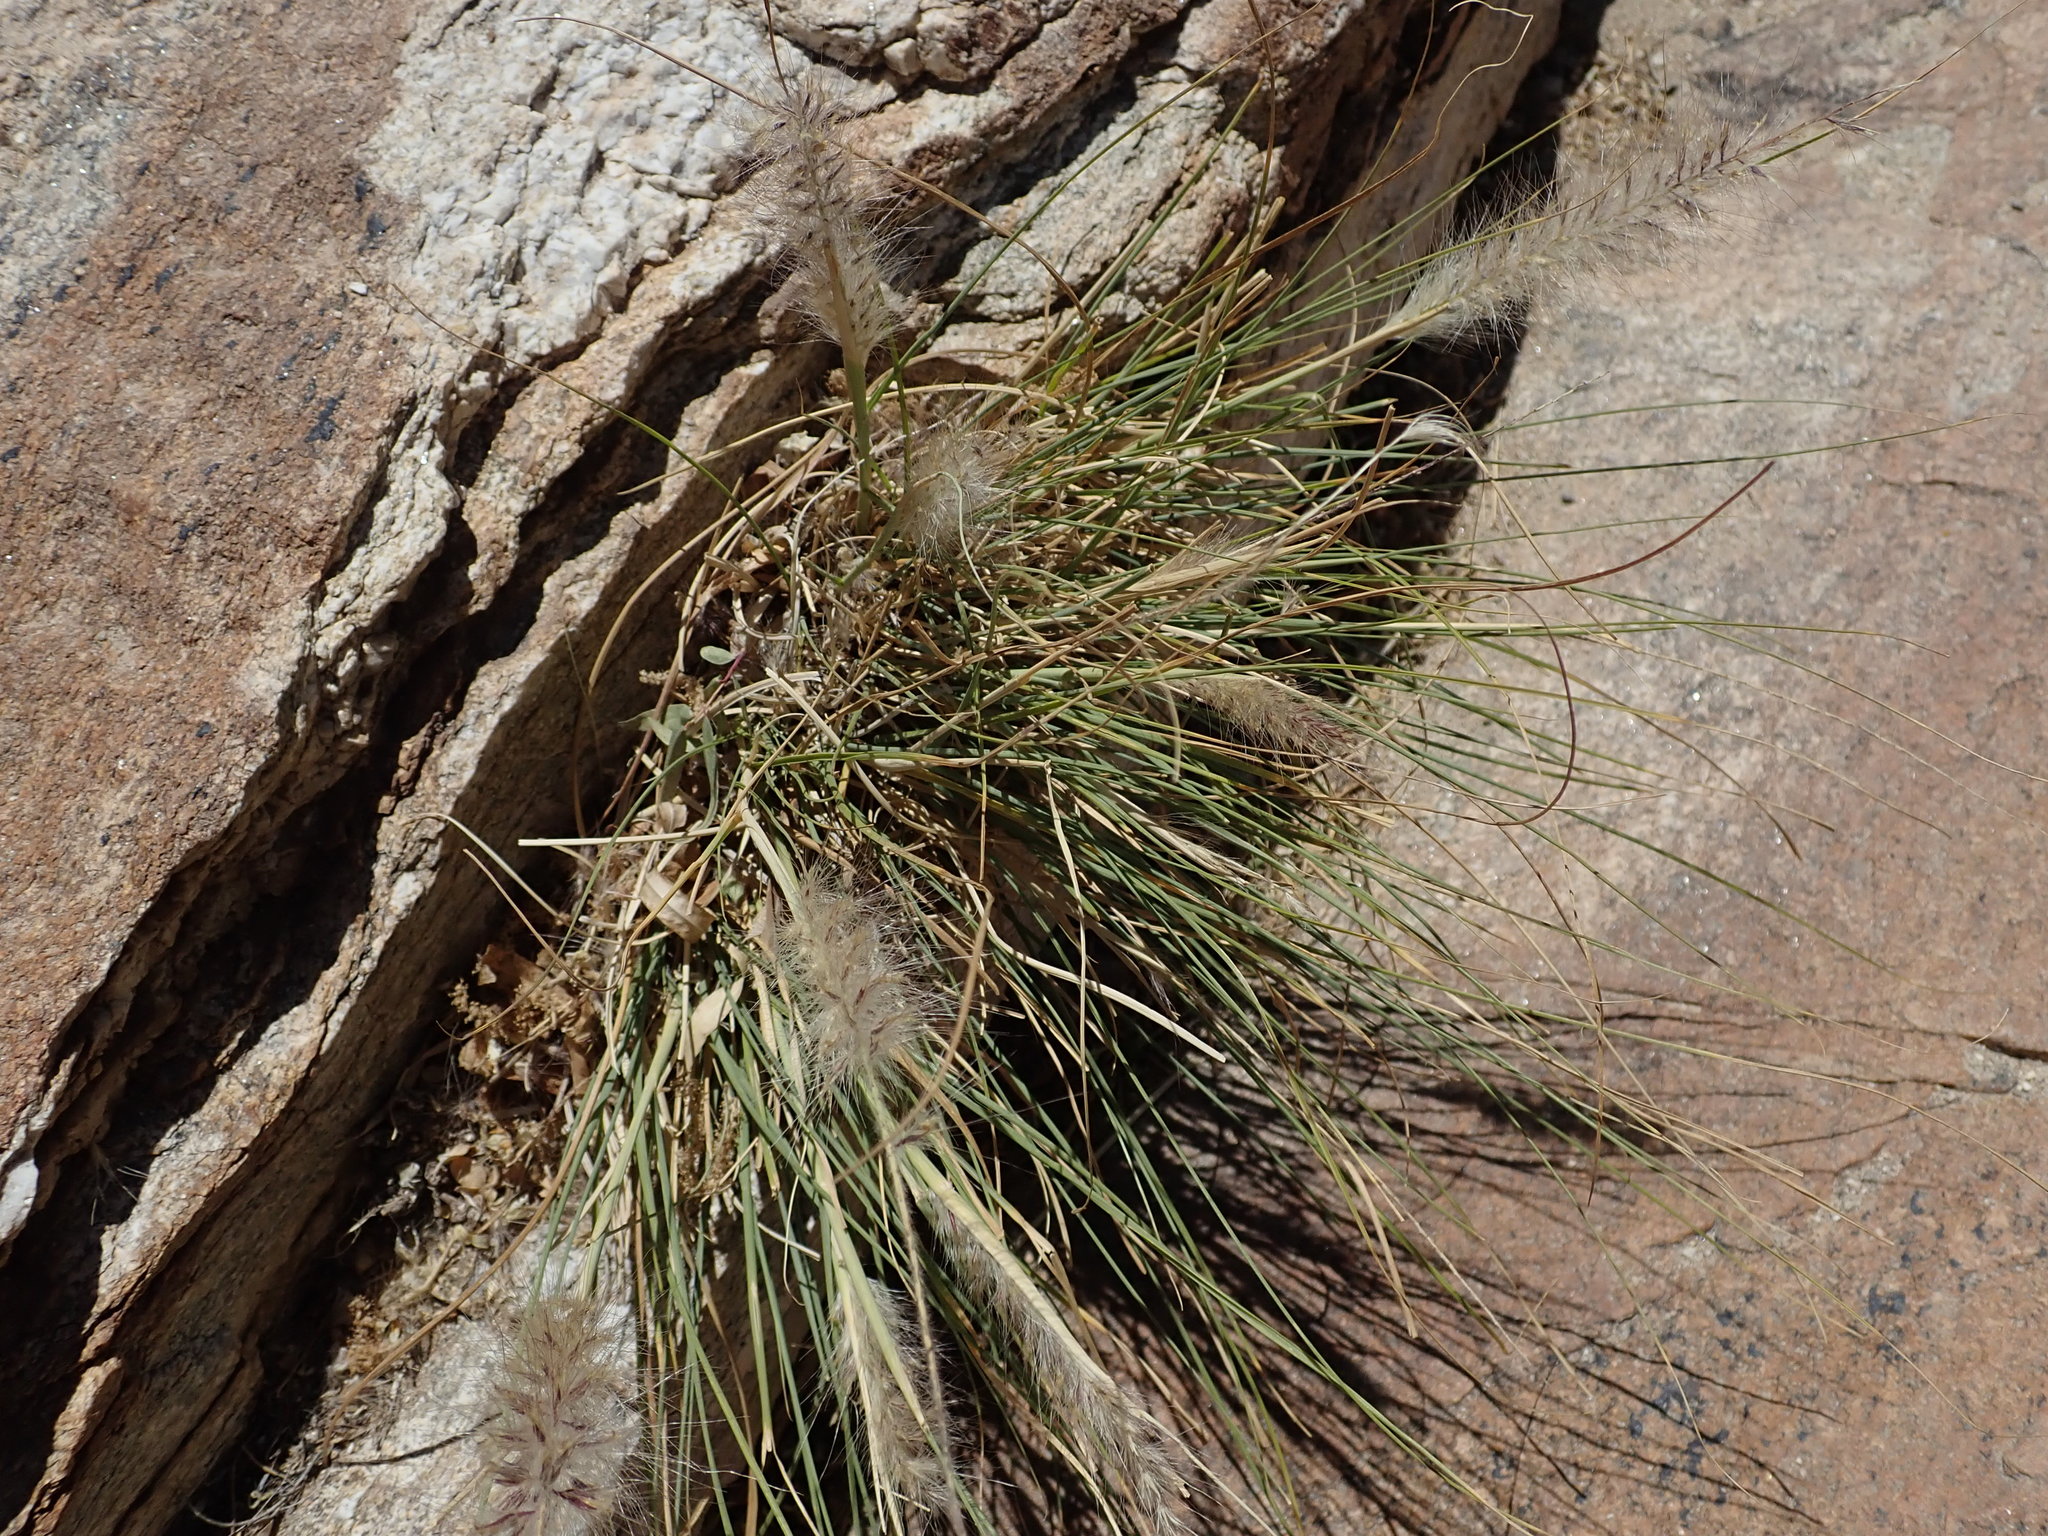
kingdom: Plantae
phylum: Tracheophyta
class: Liliopsida
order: Poales
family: Poaceae
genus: Cenchrus
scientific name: Cenchrus setaceus
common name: Crimson fountaingrass
